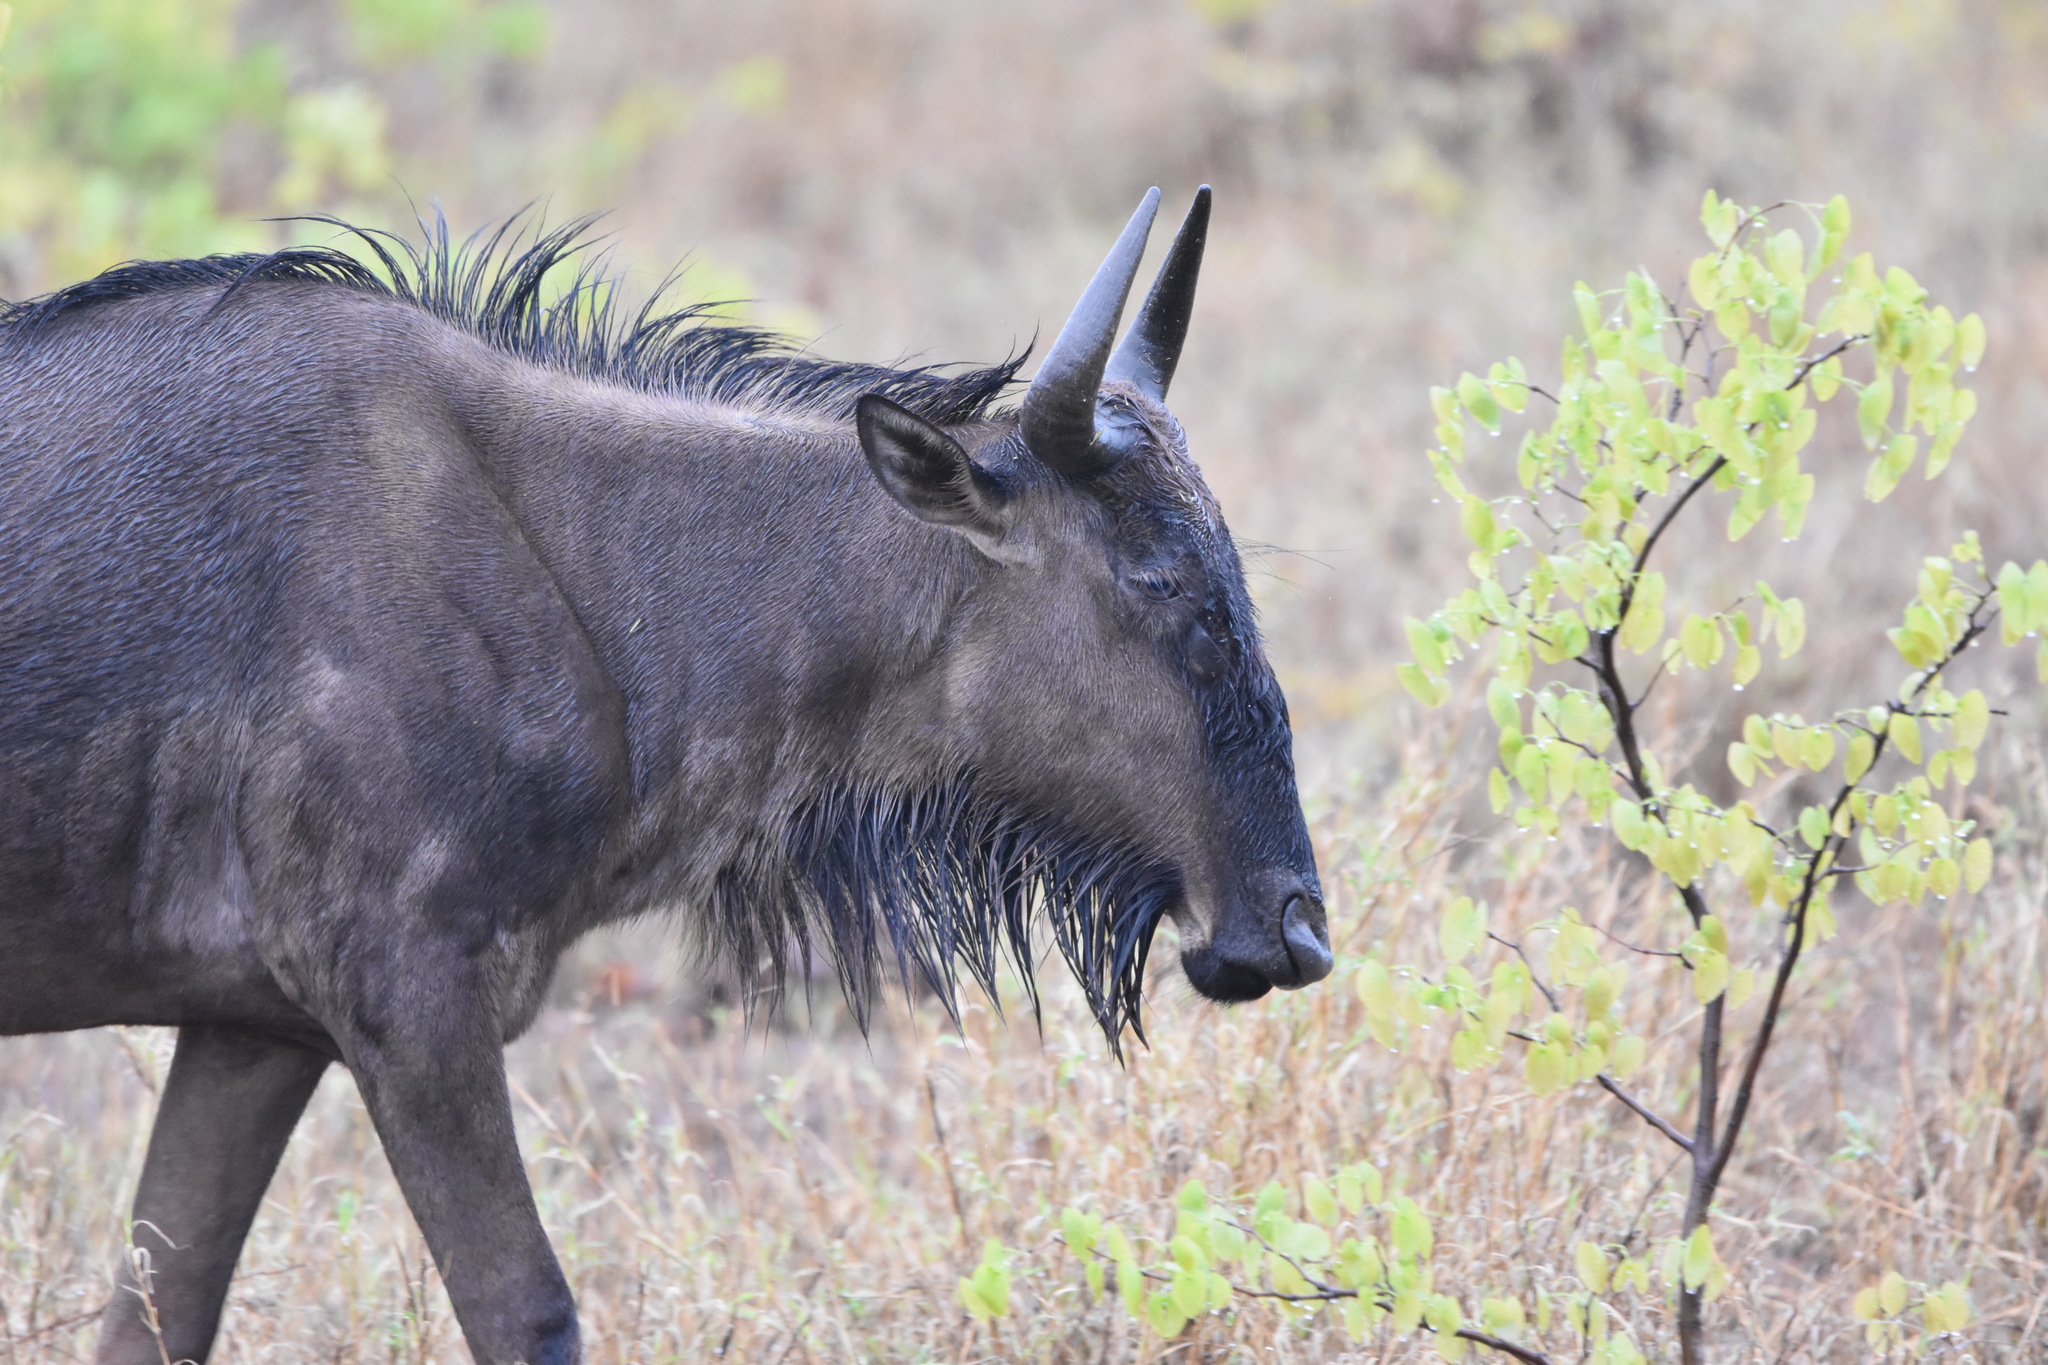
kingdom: Animalia
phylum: Chordata
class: Mammalia
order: Artiodactyla
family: Bovidae
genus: Connochaetes
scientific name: Connochaetes taurinus
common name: Blue wildebeest
